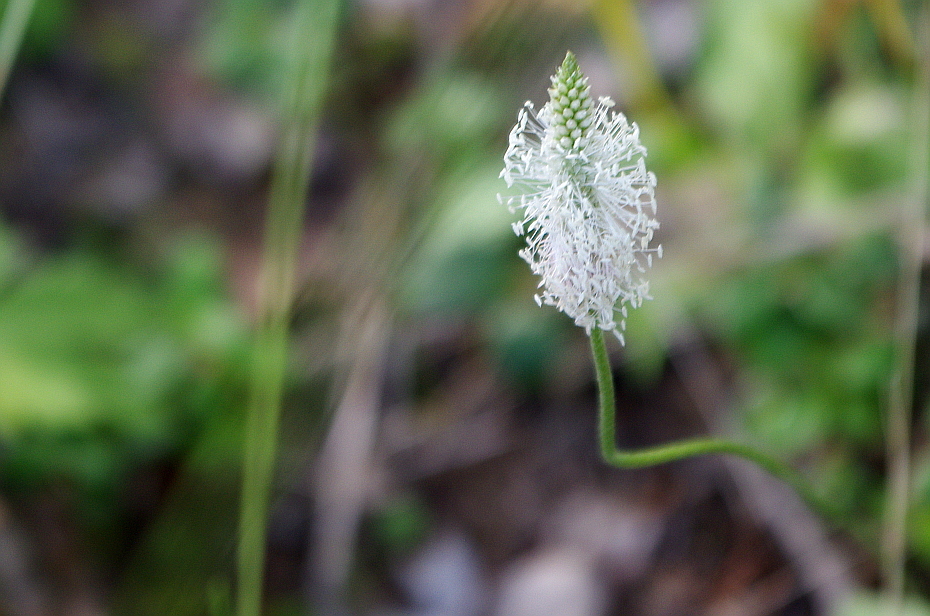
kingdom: Plantae
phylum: Tracheophyta
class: Magnoliopsida
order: Lamiales
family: Plantaginaceae
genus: Plantago
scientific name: Plantago media
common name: Hoary plantain
